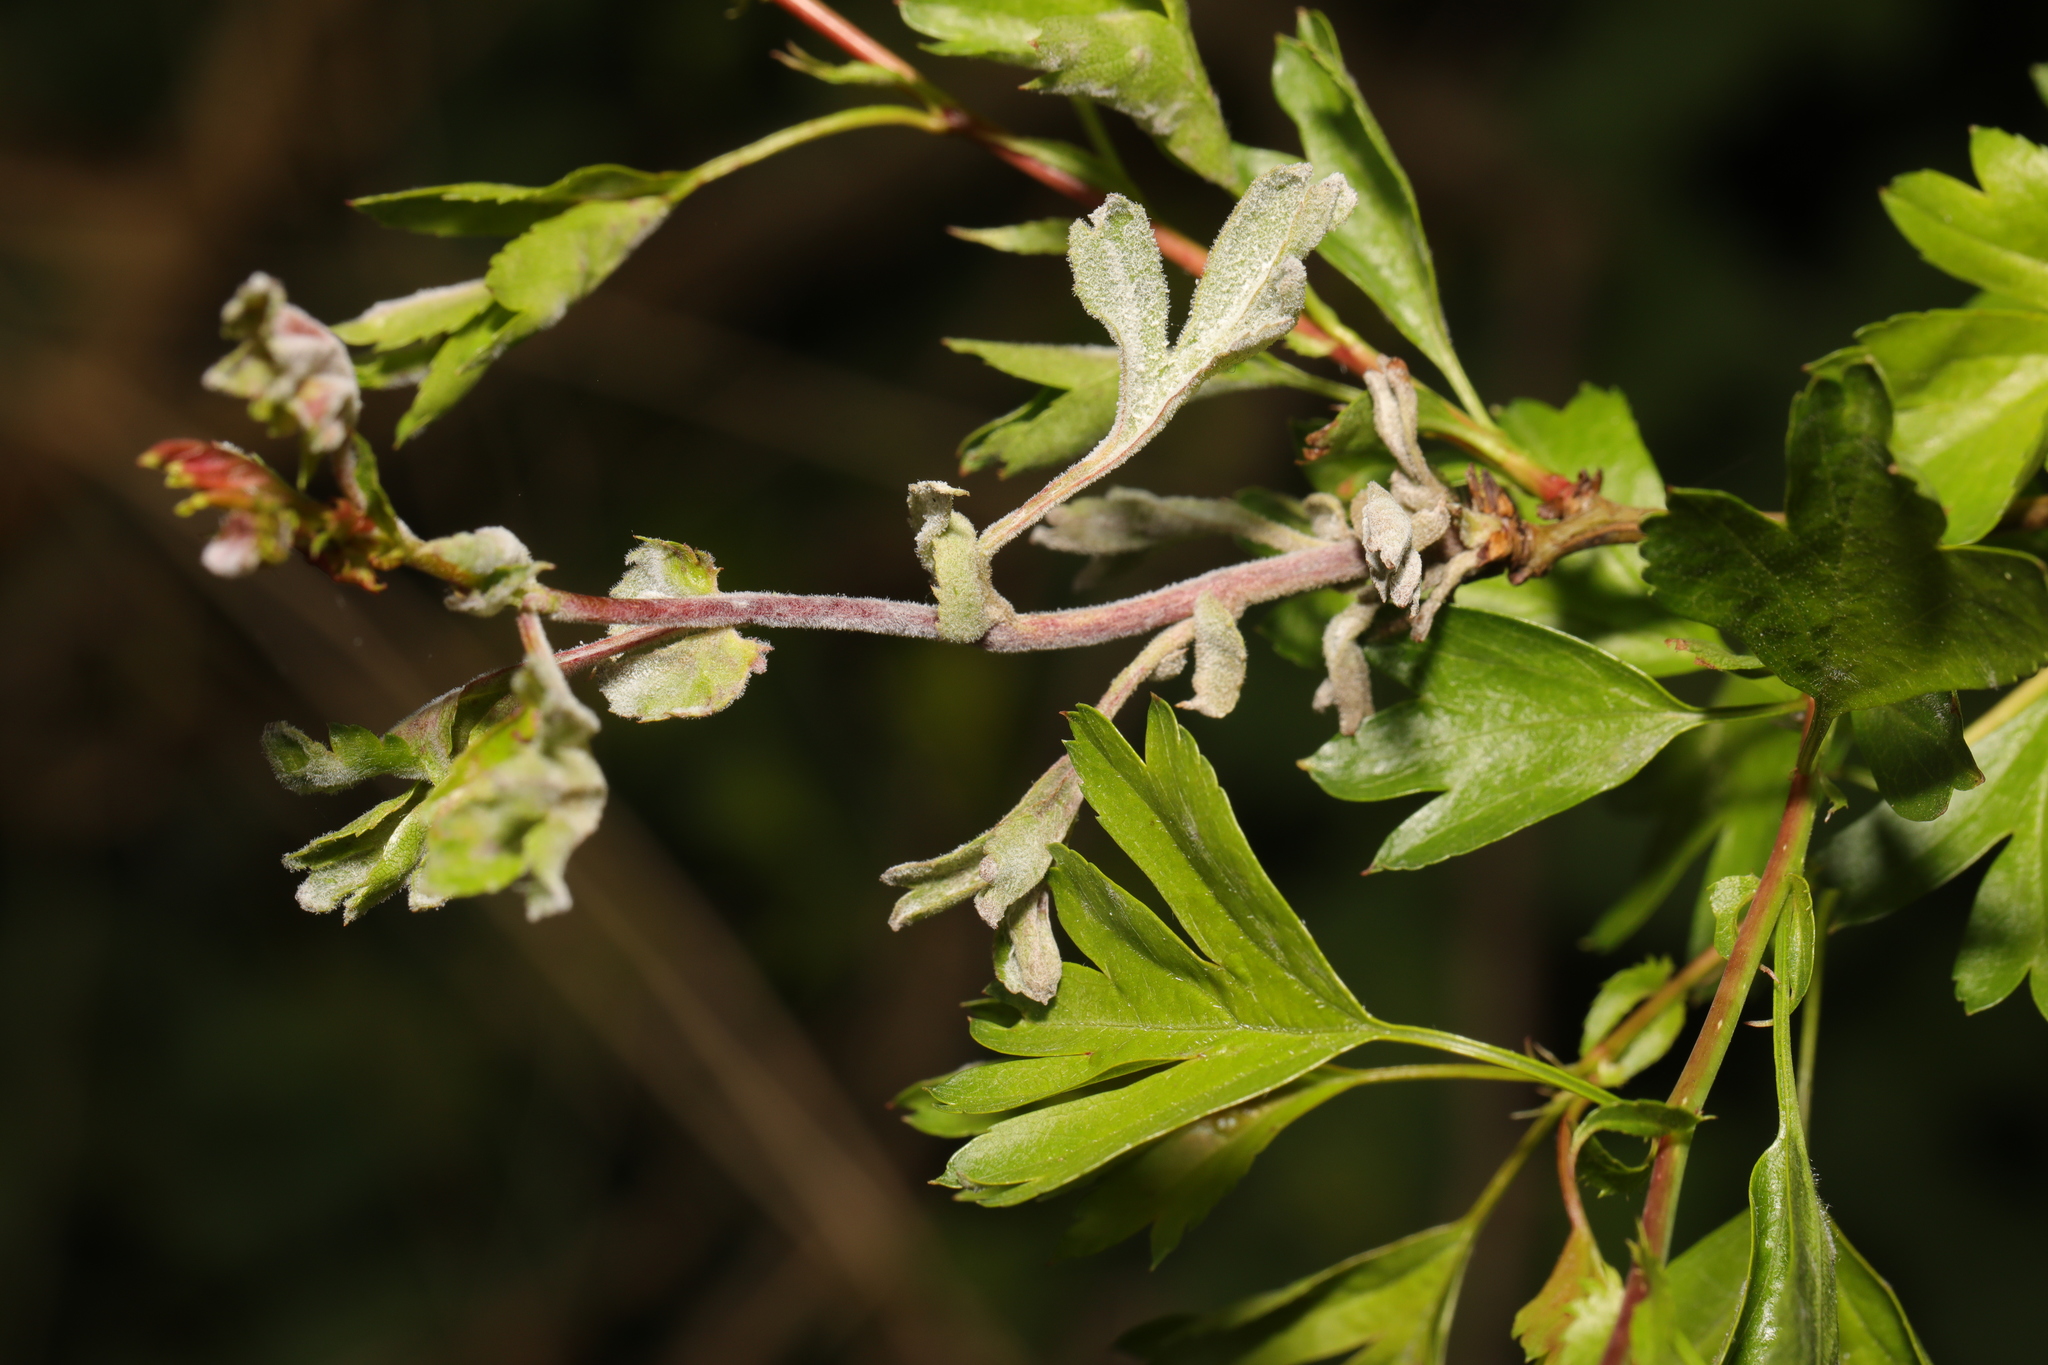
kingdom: Fungi
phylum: Ascomycota
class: Leotiomycetes
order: Helotiales
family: Erysiphaceae
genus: Podosphaera
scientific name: Podosphaera clandestina
